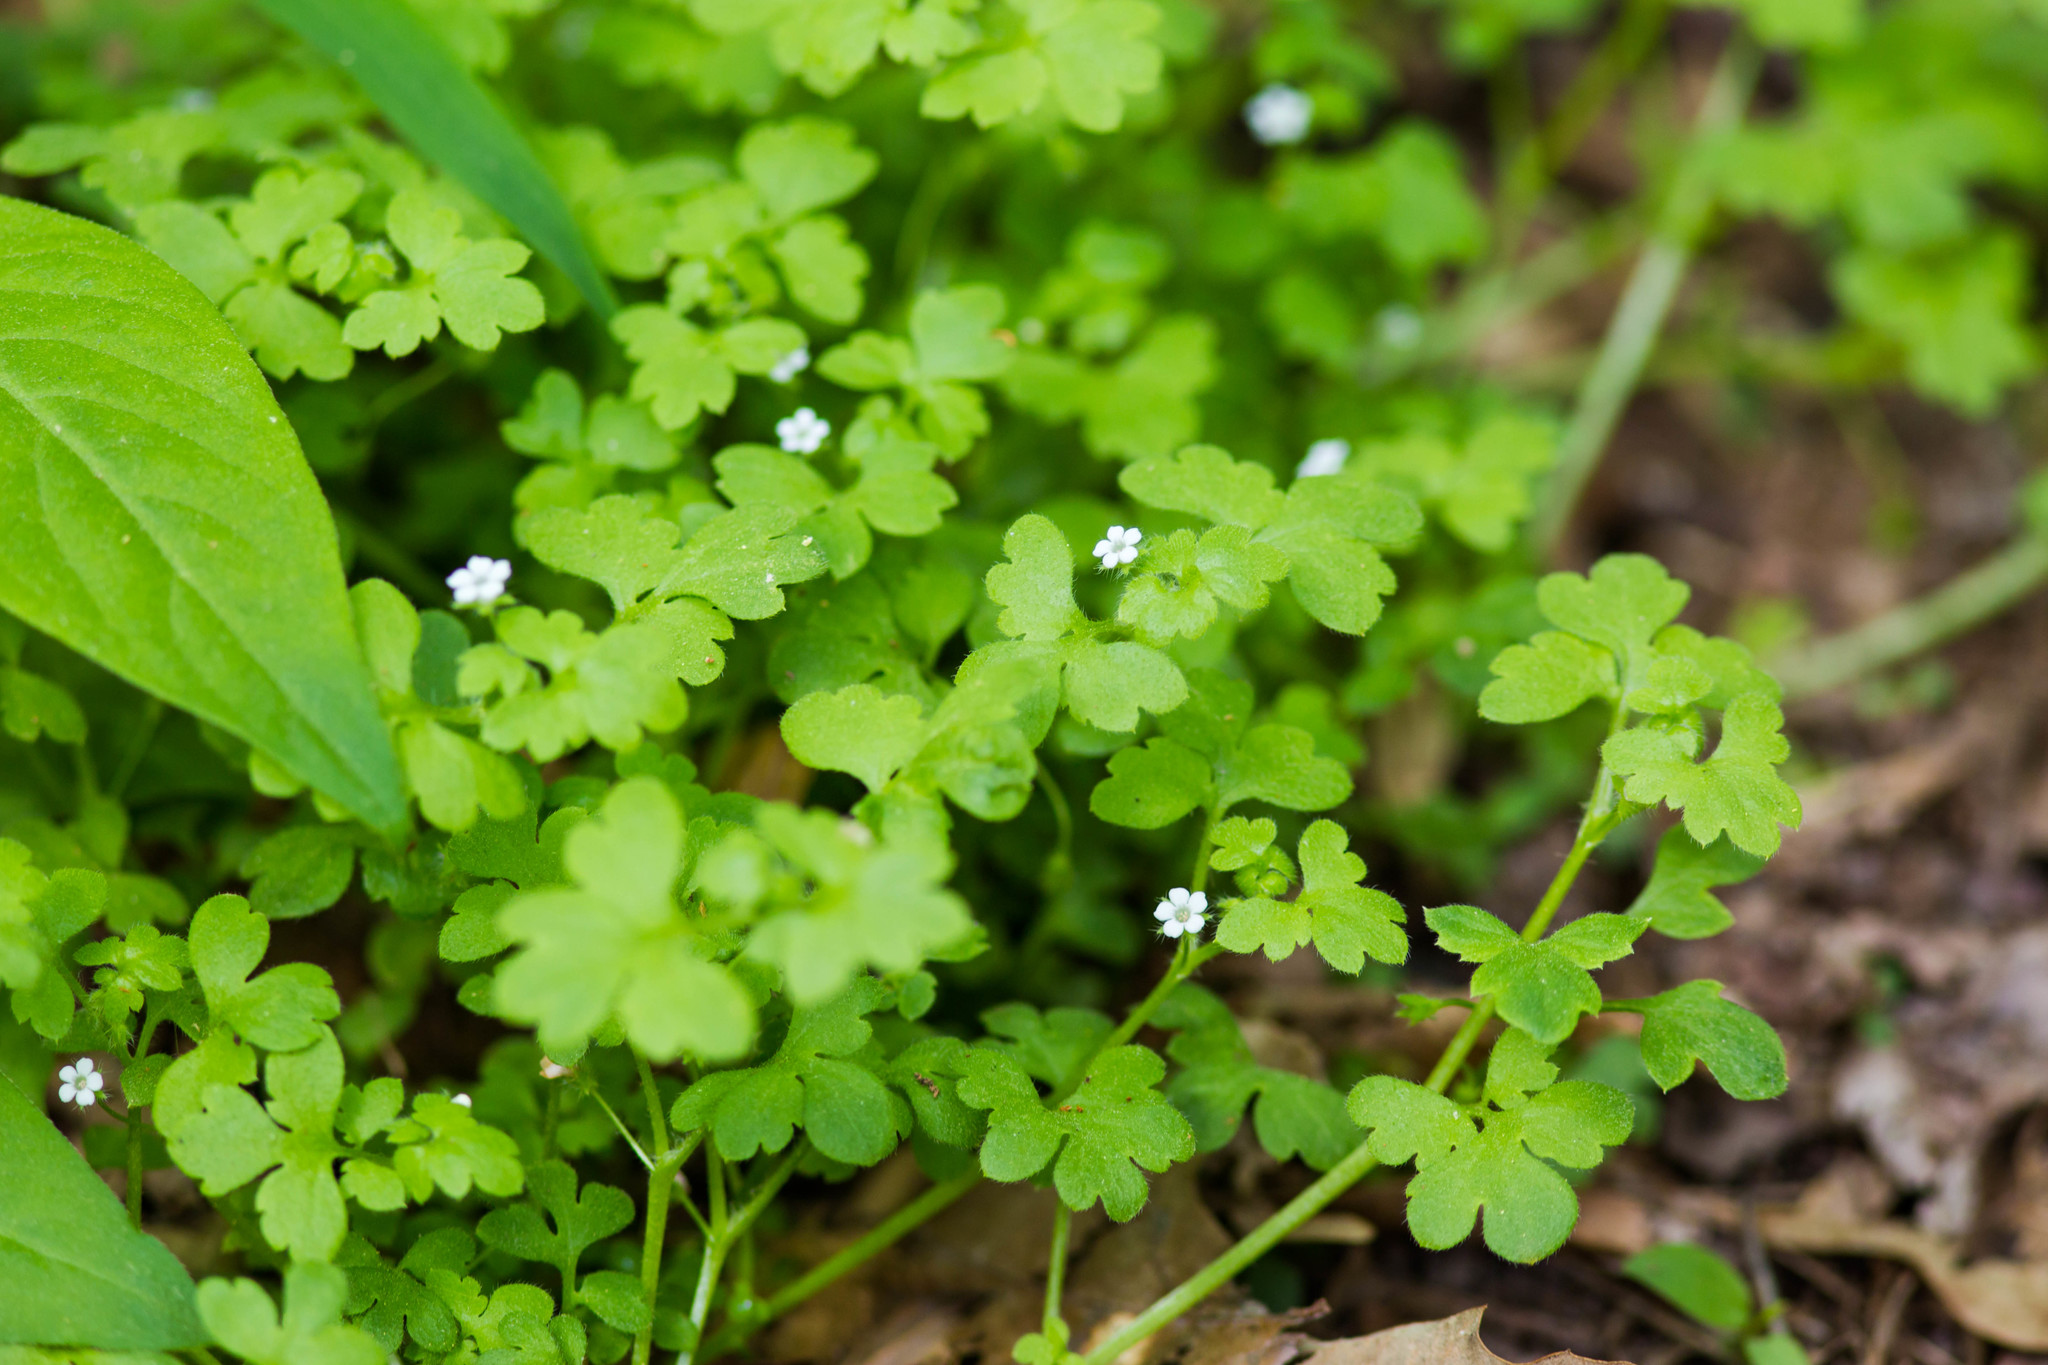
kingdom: Plantae
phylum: Tracheophyta
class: Magnoliopsida
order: Boraginales
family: Hydrophyllaceae
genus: Nemophila
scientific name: Nemophila aphylla
